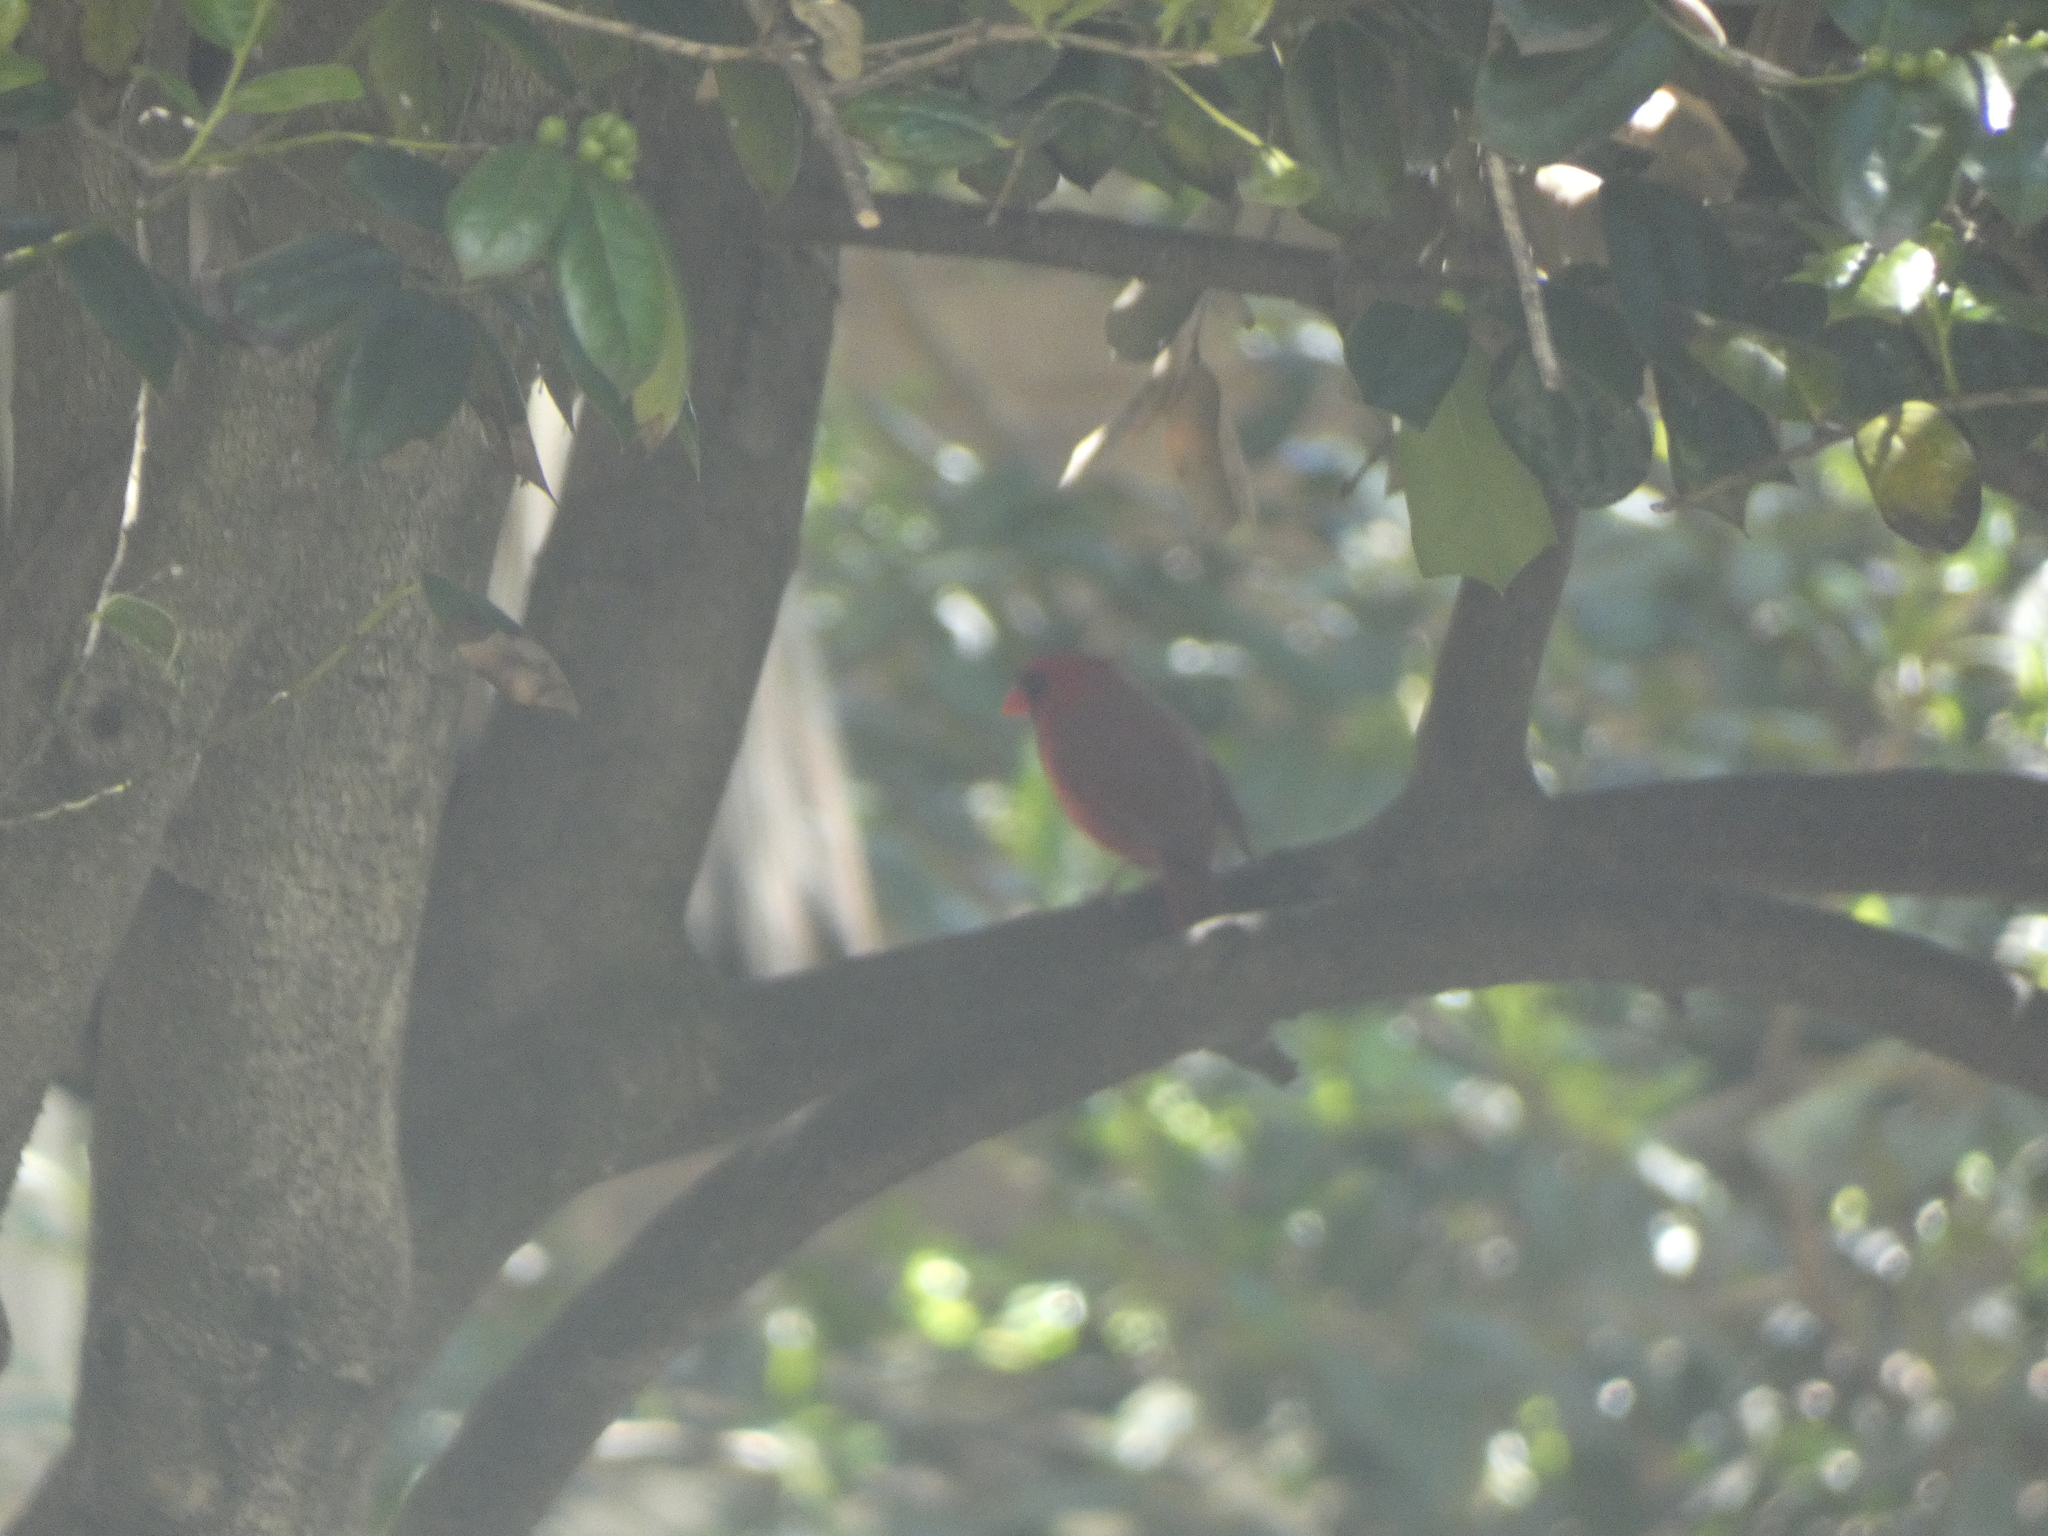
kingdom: Animalia
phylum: Chordata
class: Aves
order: Passeriformes
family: Cardinalidae
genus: Cardinalis
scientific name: Cardinalis cardinalis
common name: Northern cardinal
